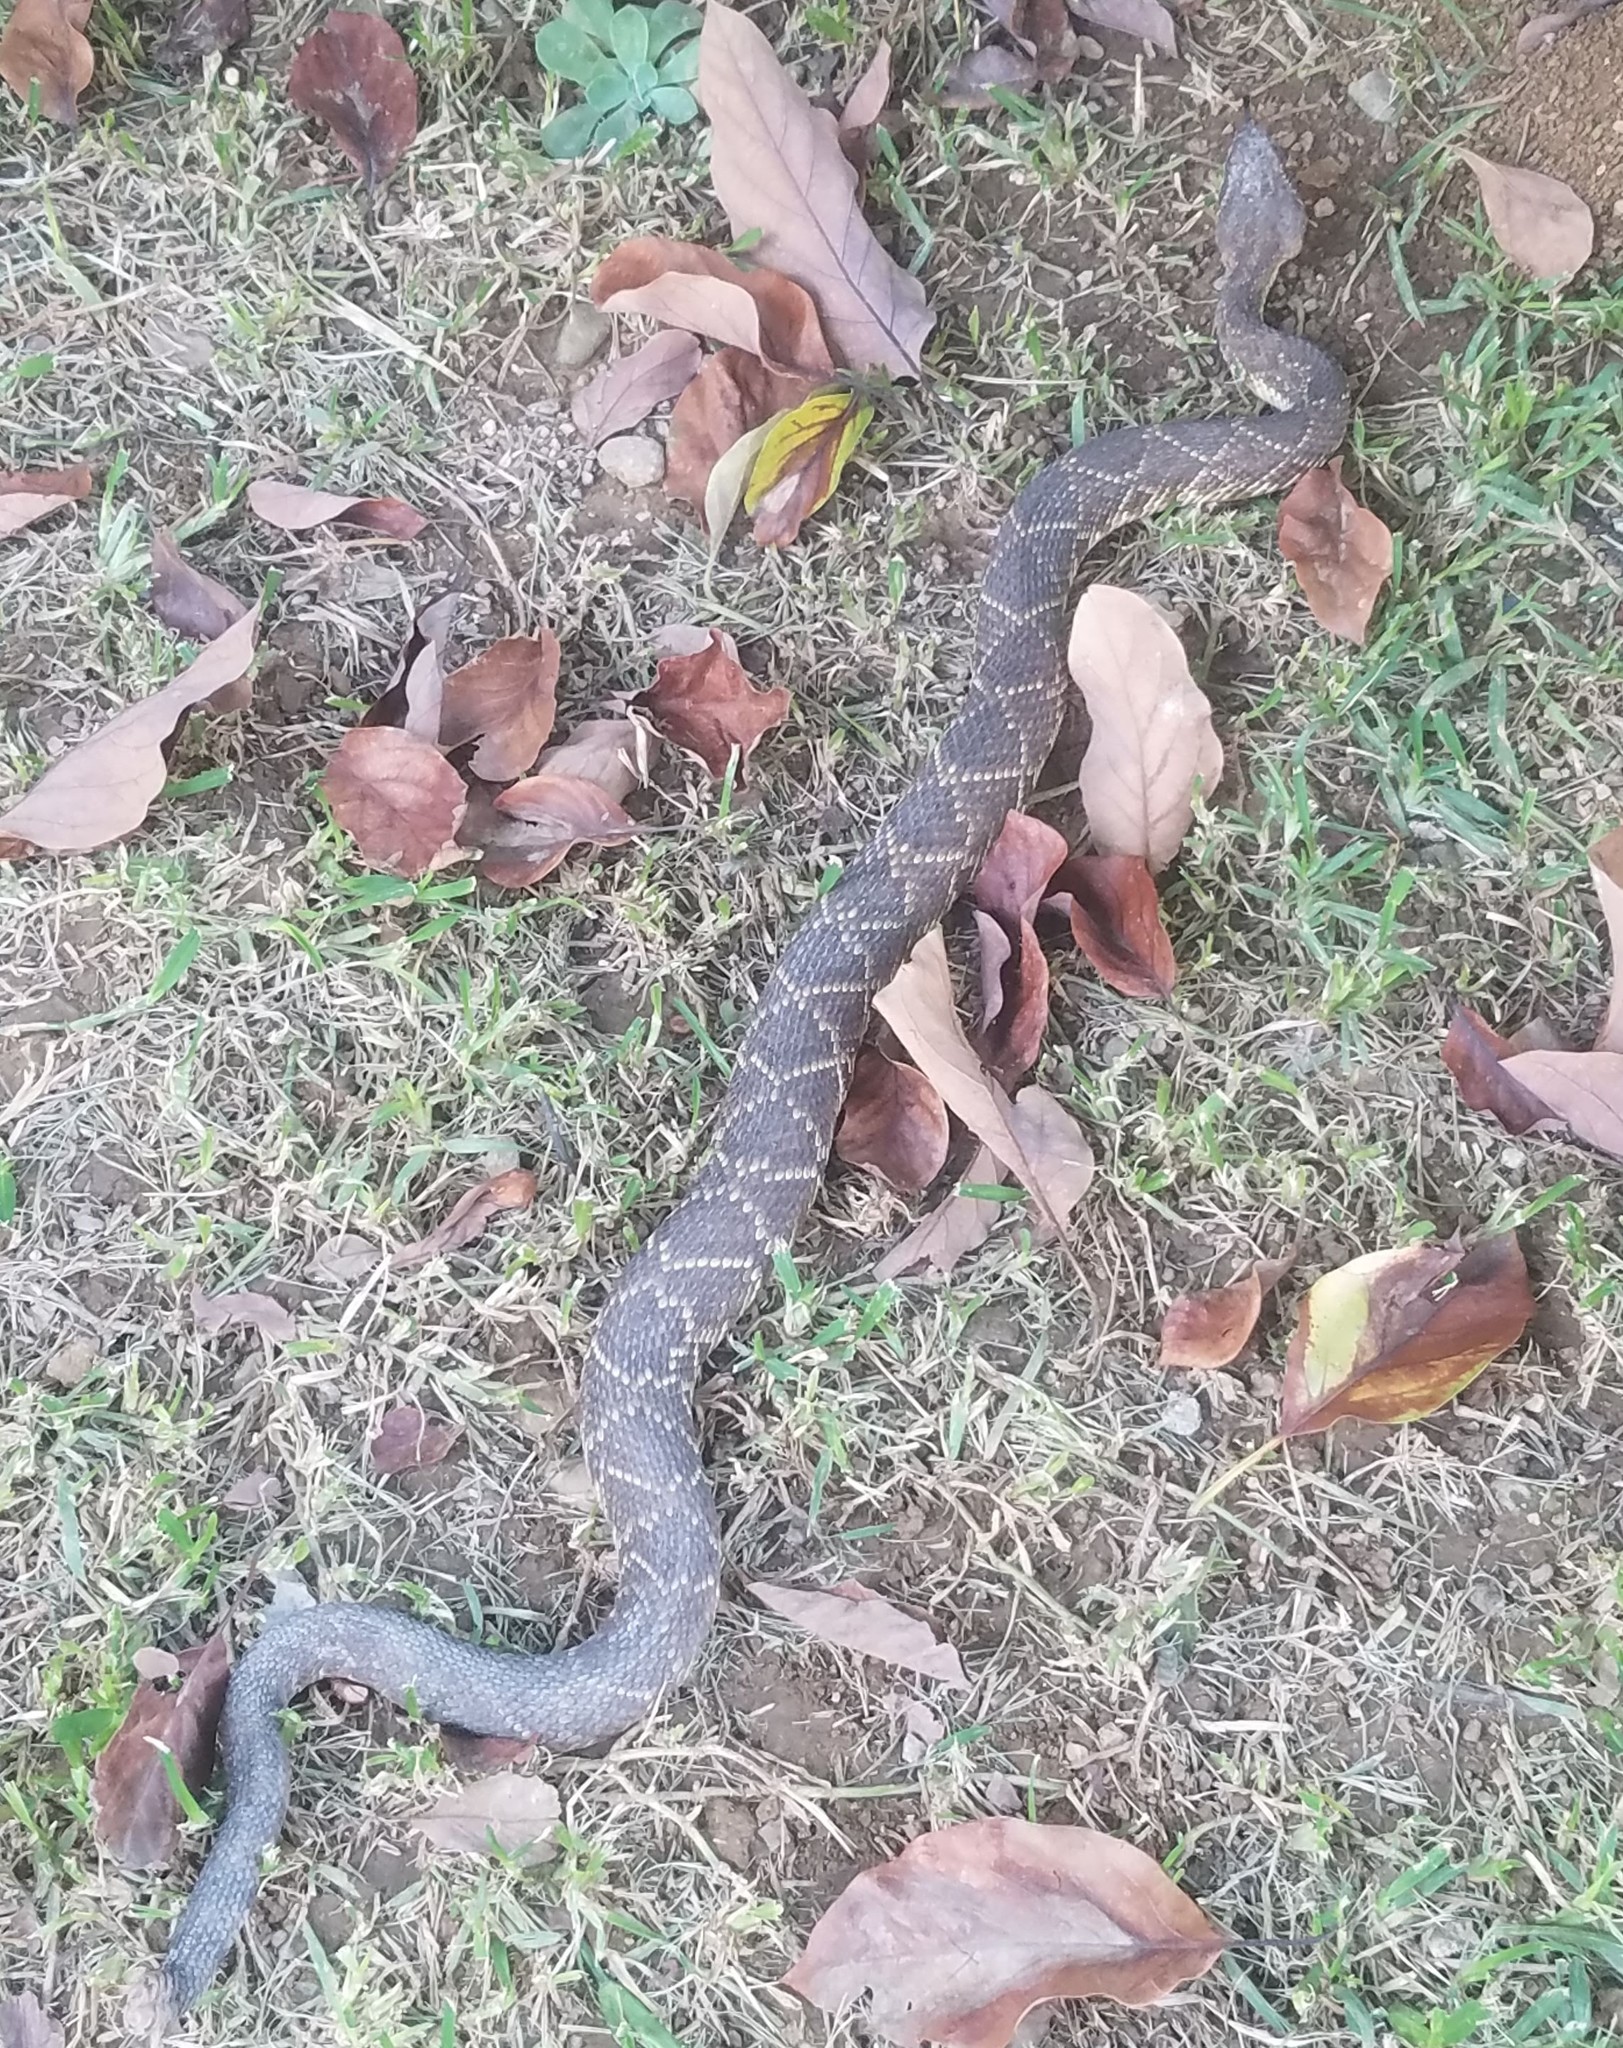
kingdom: Animalia
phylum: Chordata
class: Squamata
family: Viperidae
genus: Crotalus
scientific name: Crotalus molossus
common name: Black tailed rattlesnake
